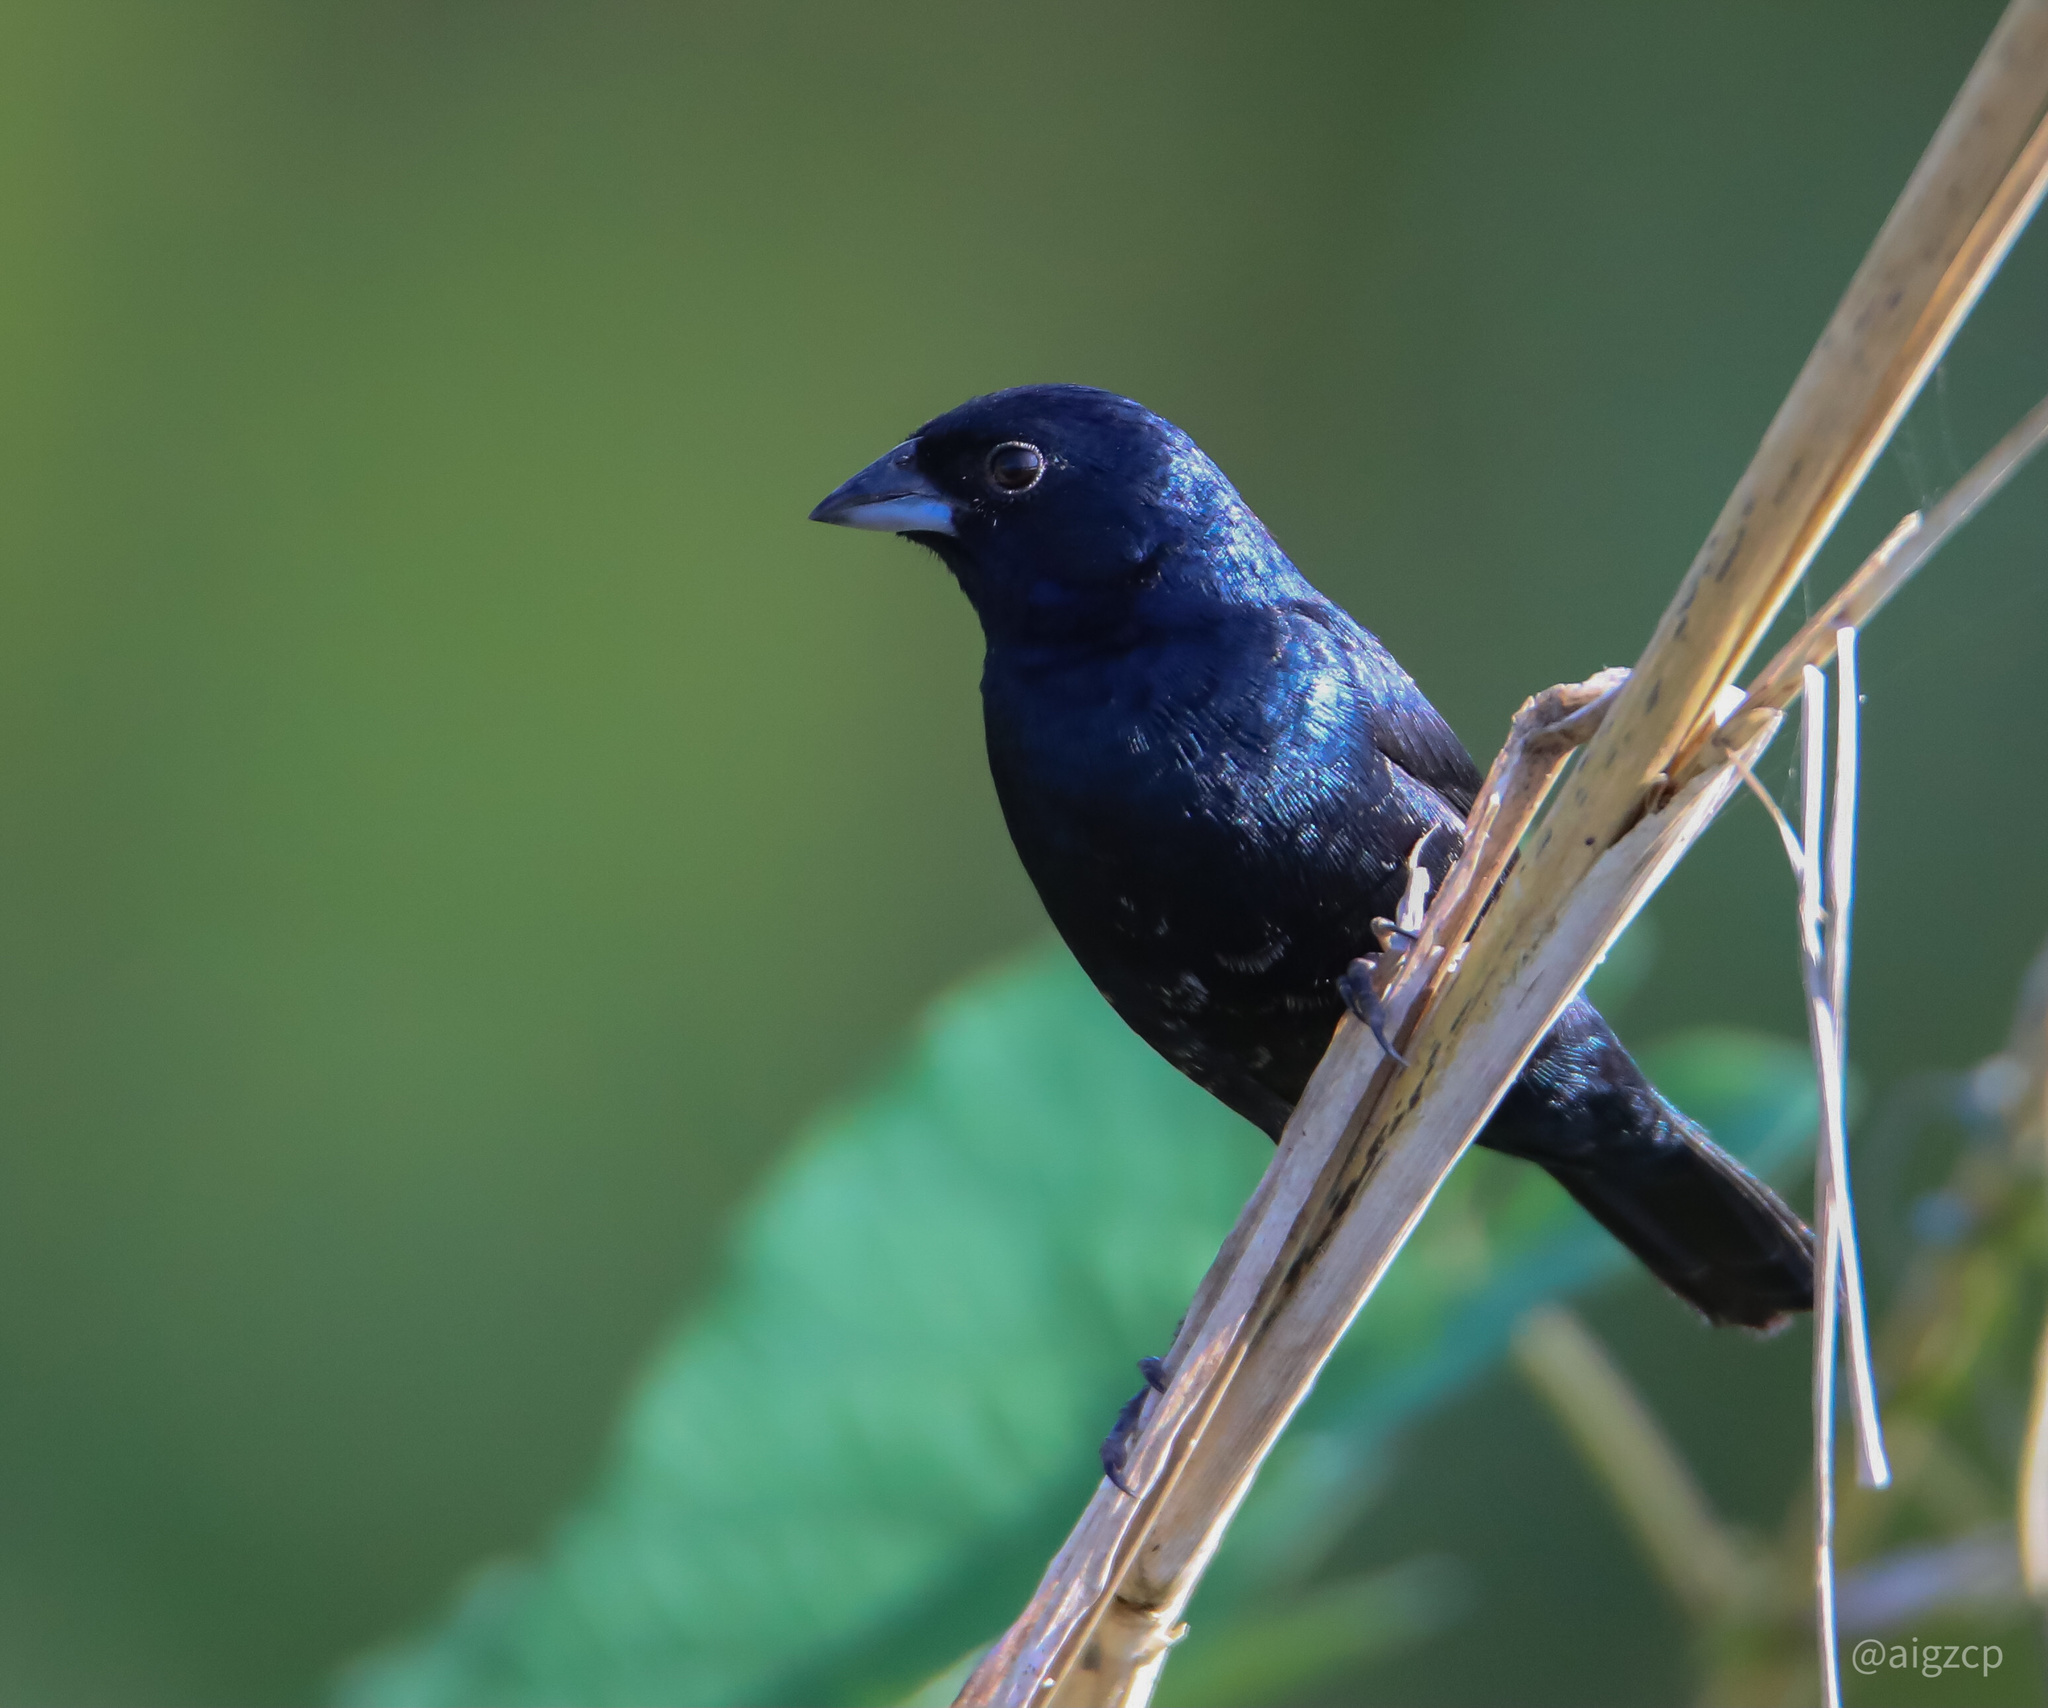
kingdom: Animalia
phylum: Chordata
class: Aves
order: Passeriformes
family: Thraupidae
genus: Volatinia
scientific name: Volatinia jacarina
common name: Blue-black grassquit
